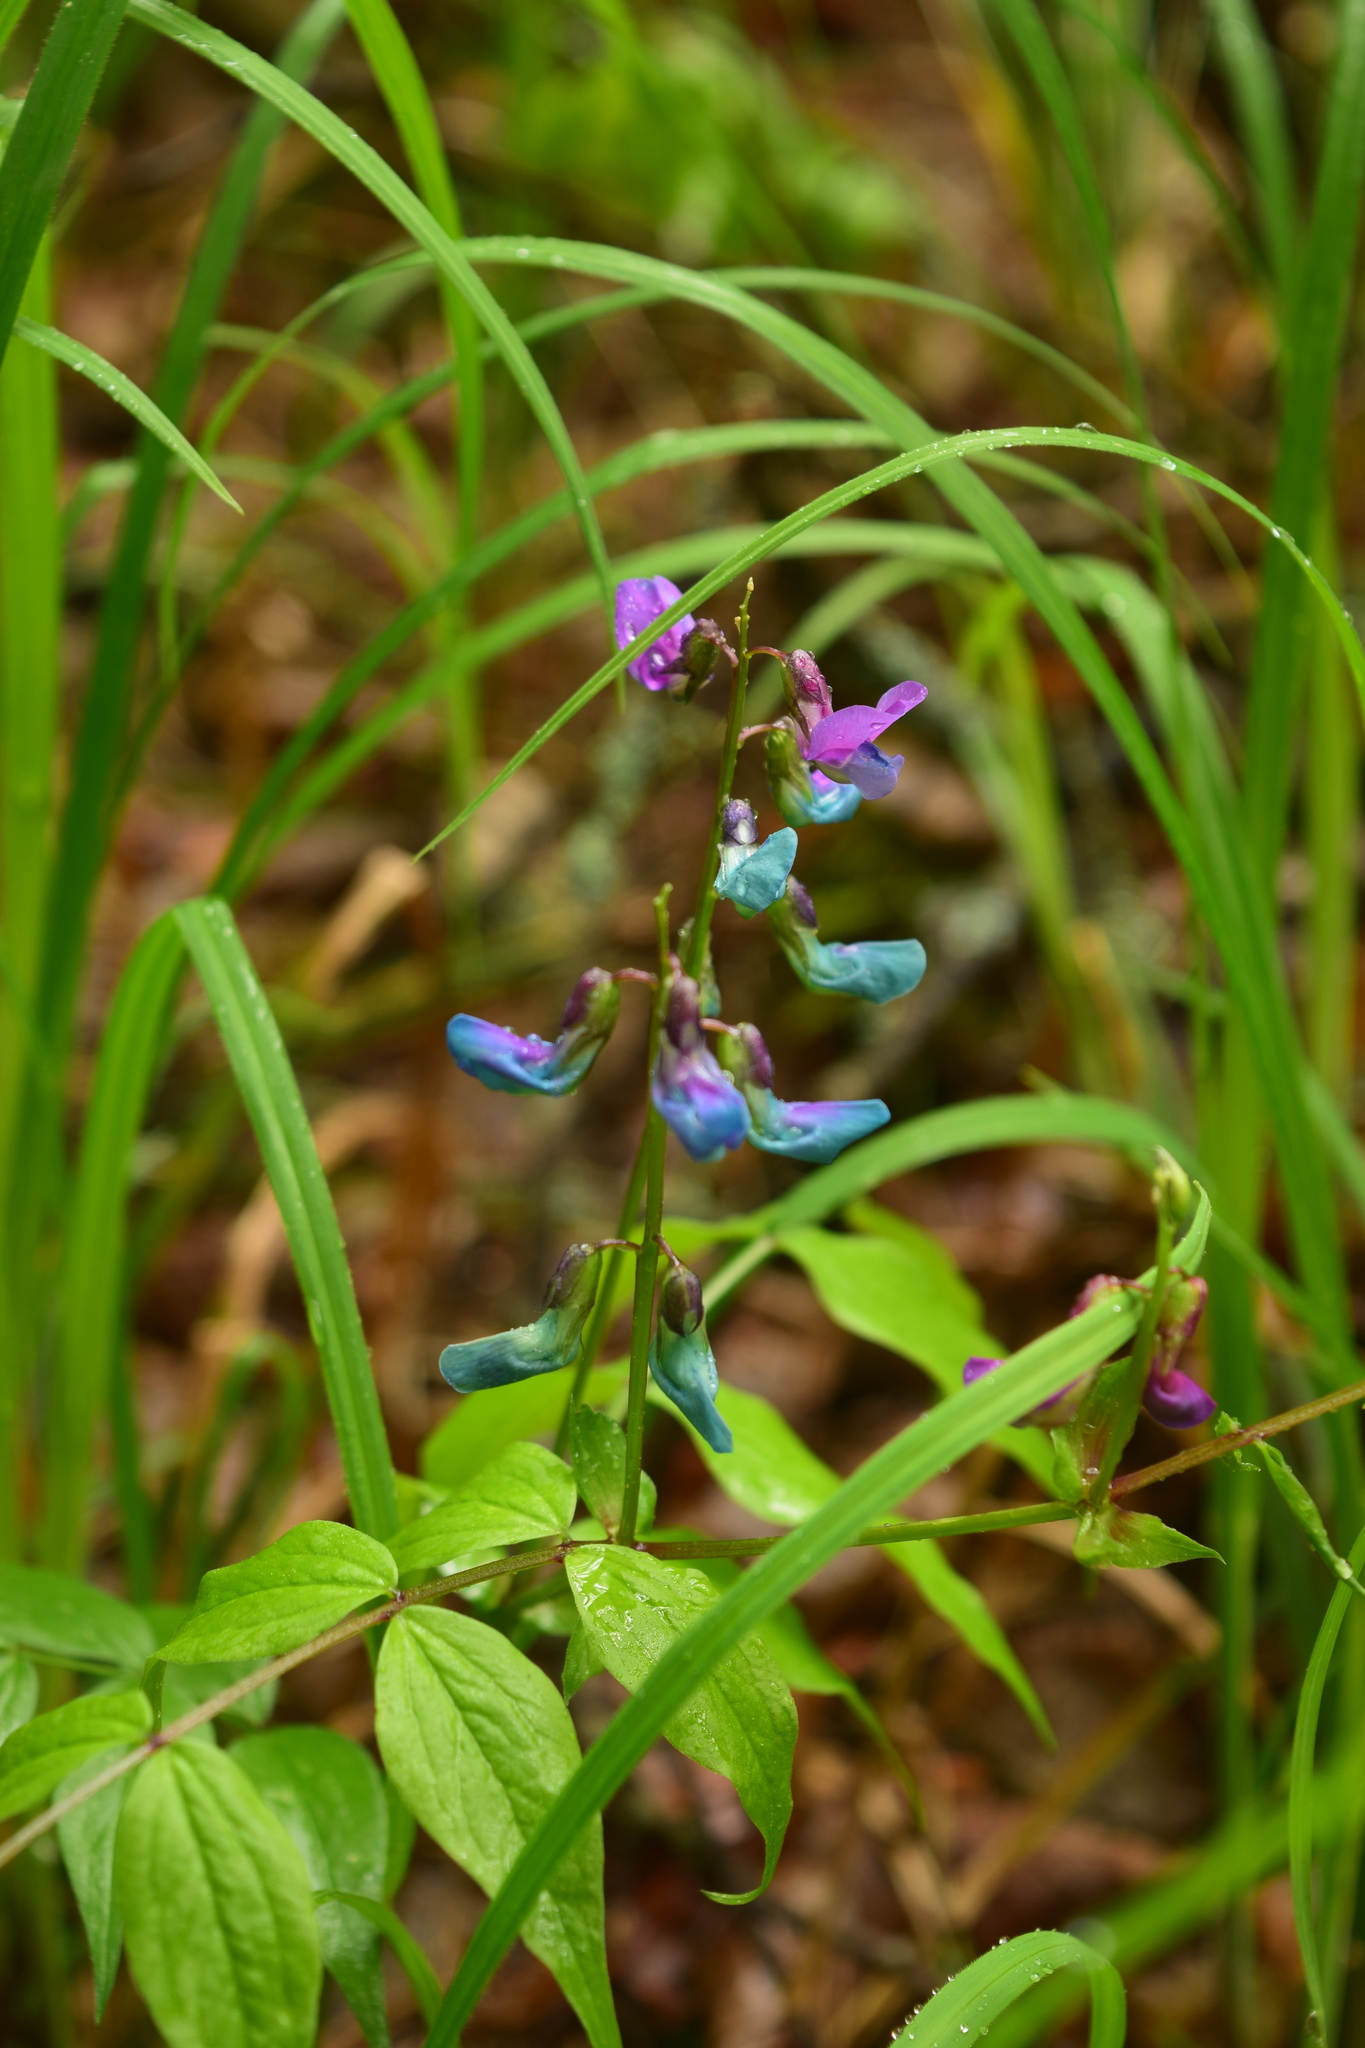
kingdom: Plantae
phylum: Tracheophyta
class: Magnoliopsida
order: Fabales
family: Fabaceae
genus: Lathyrus
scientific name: Lathyrus vernus
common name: Spring pea
